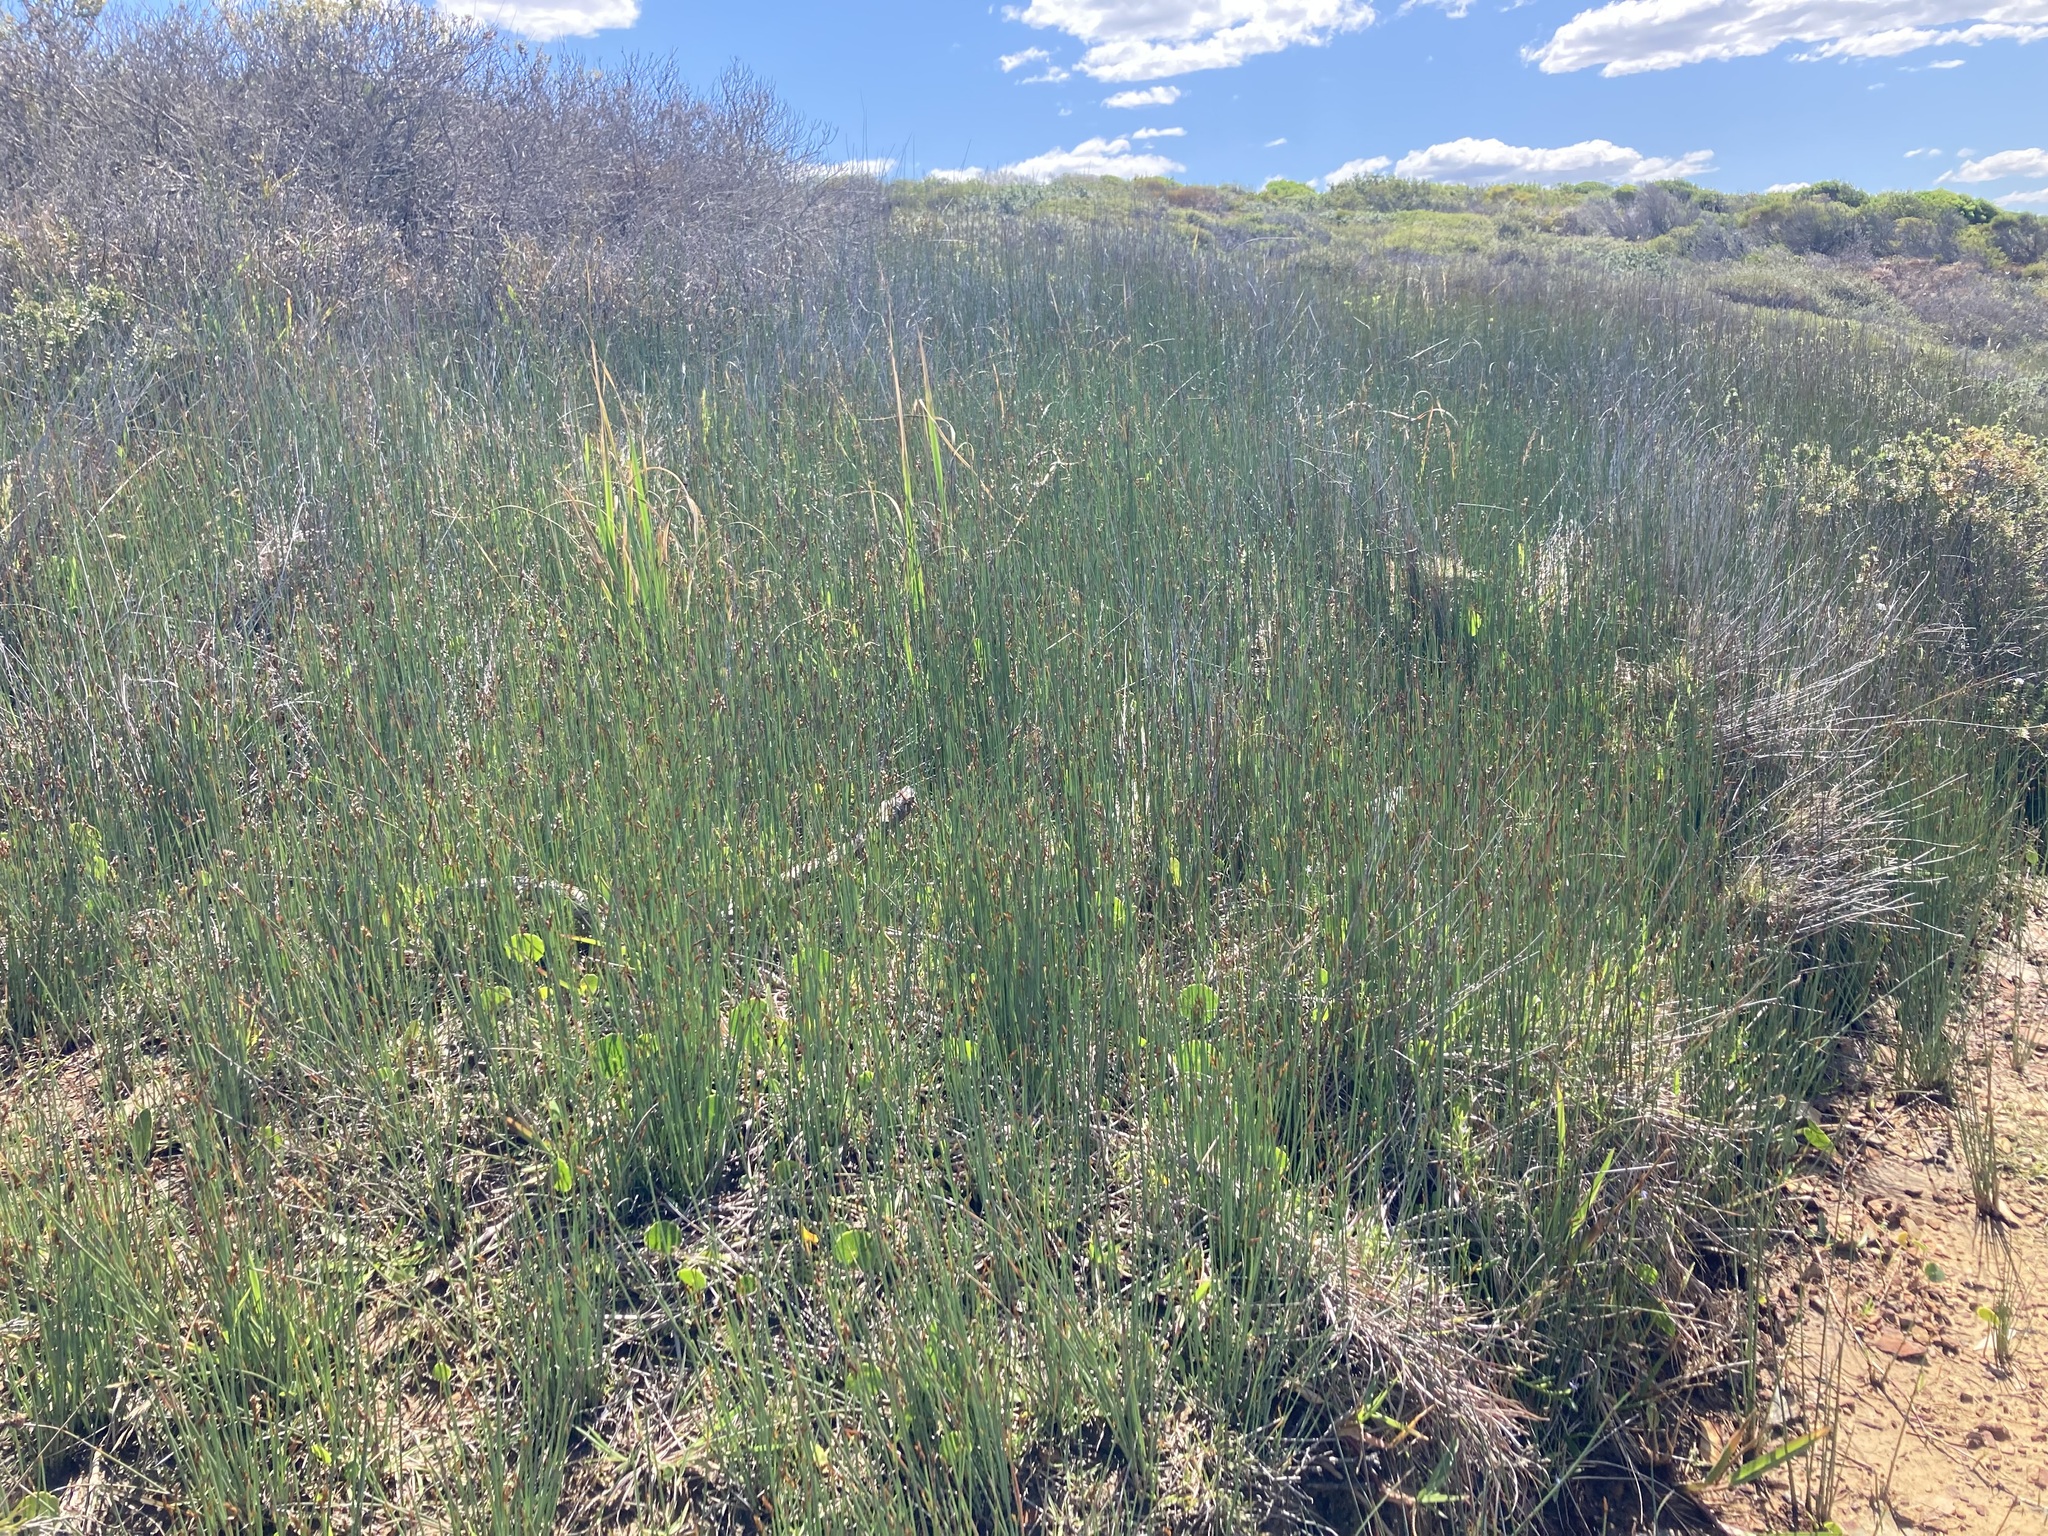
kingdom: Plantae
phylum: Tracheophyta
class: Liliopsida
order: Poales
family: Cyperaceae
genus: Machaerina
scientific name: Machaerina juncea
